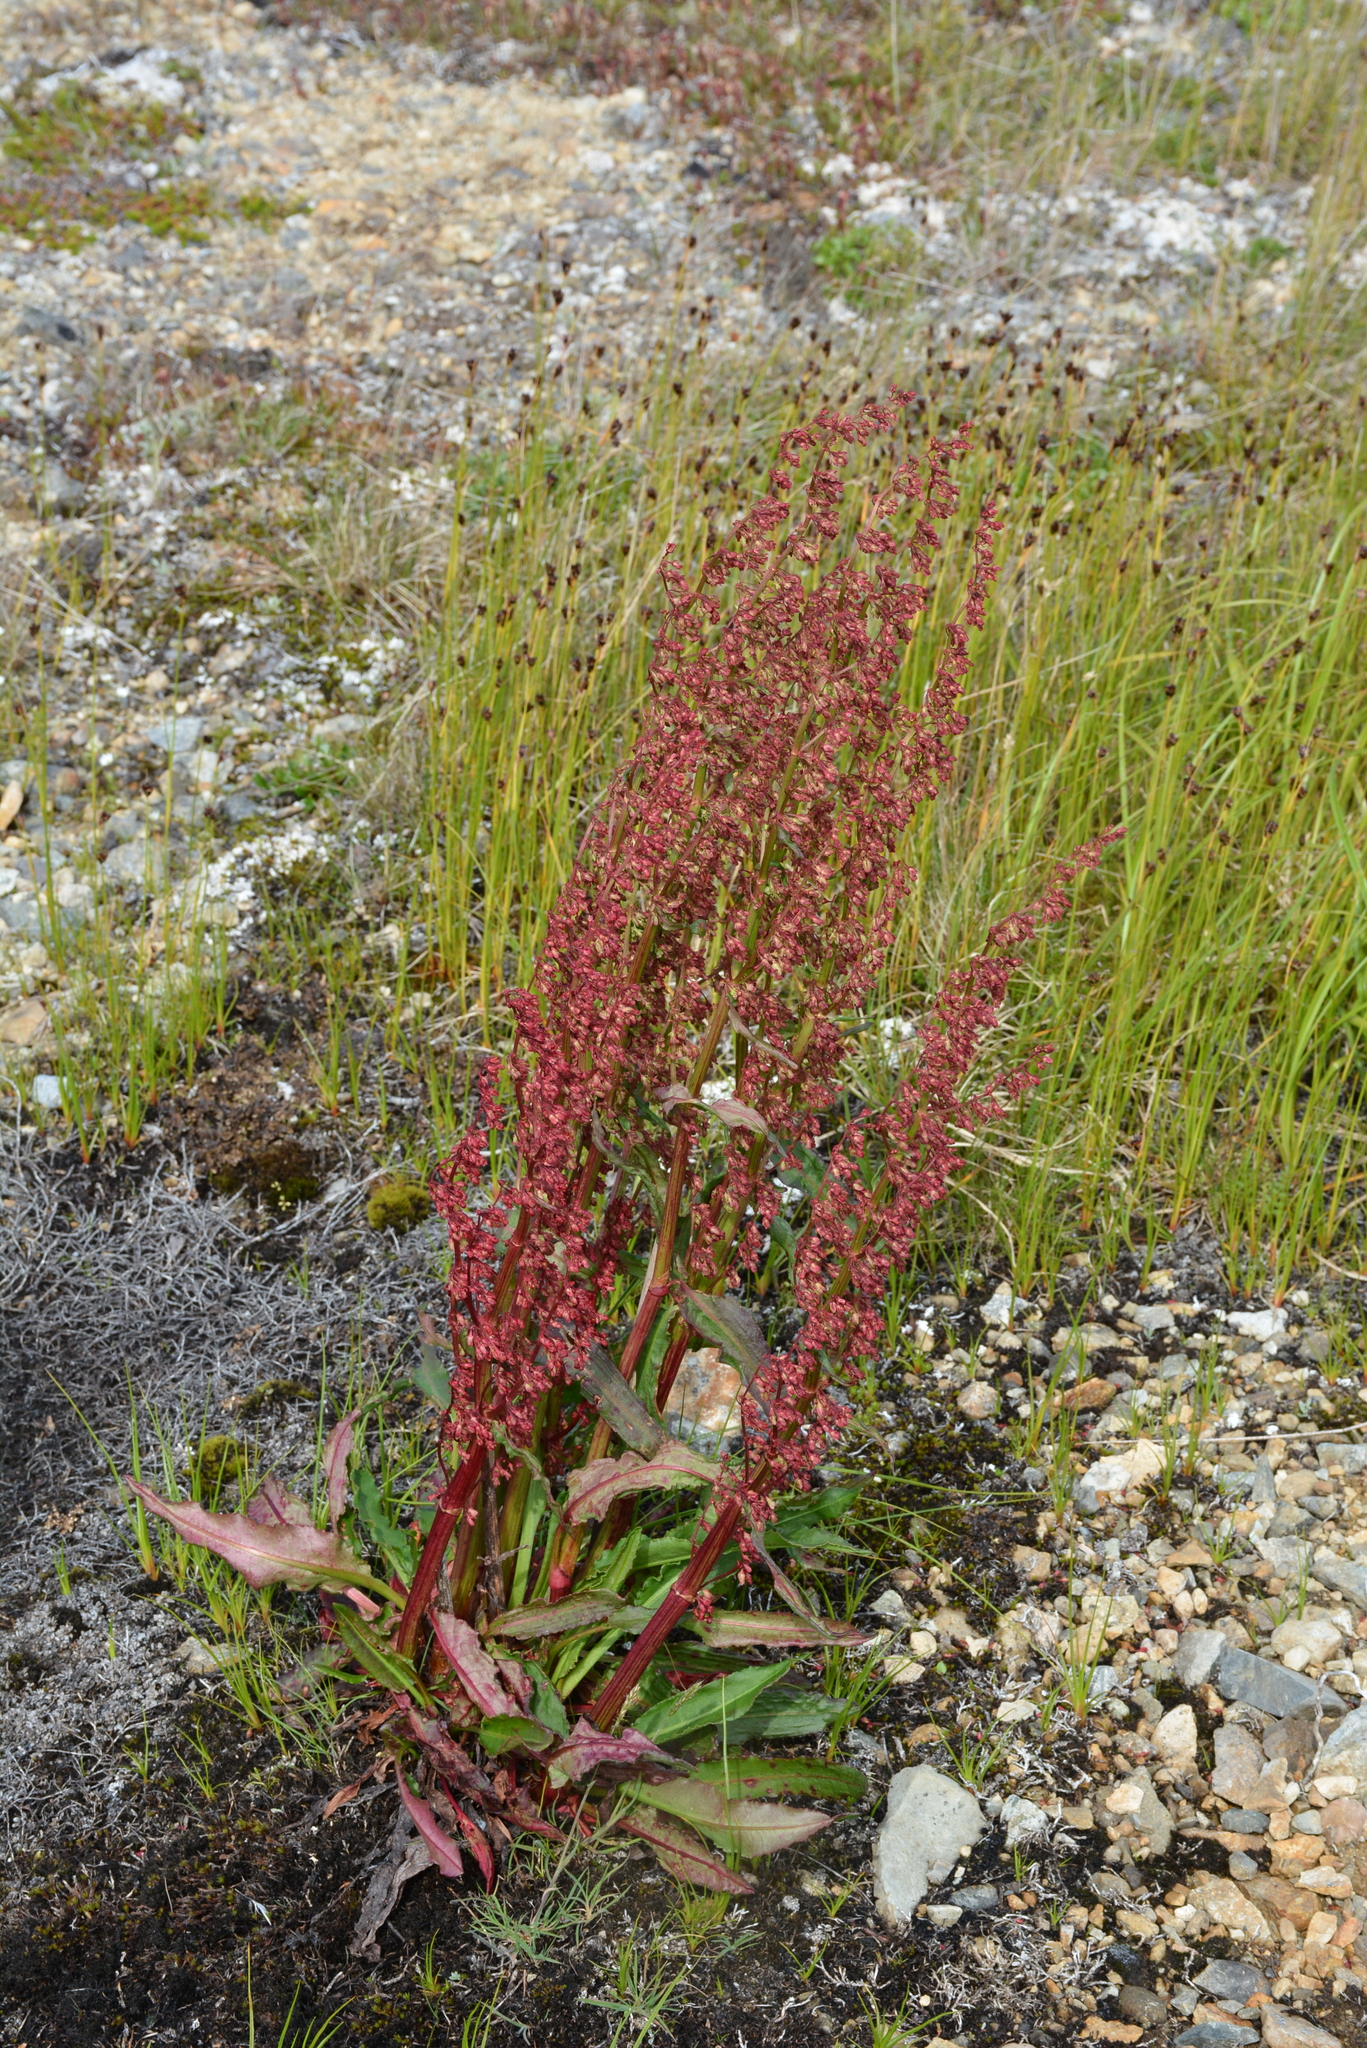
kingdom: Plantae
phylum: Tracheophyta
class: Magnoliopsida
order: Caryophyllales
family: Polygonaceae
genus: Rumex
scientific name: Rumex arcticus
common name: Arctic dock
